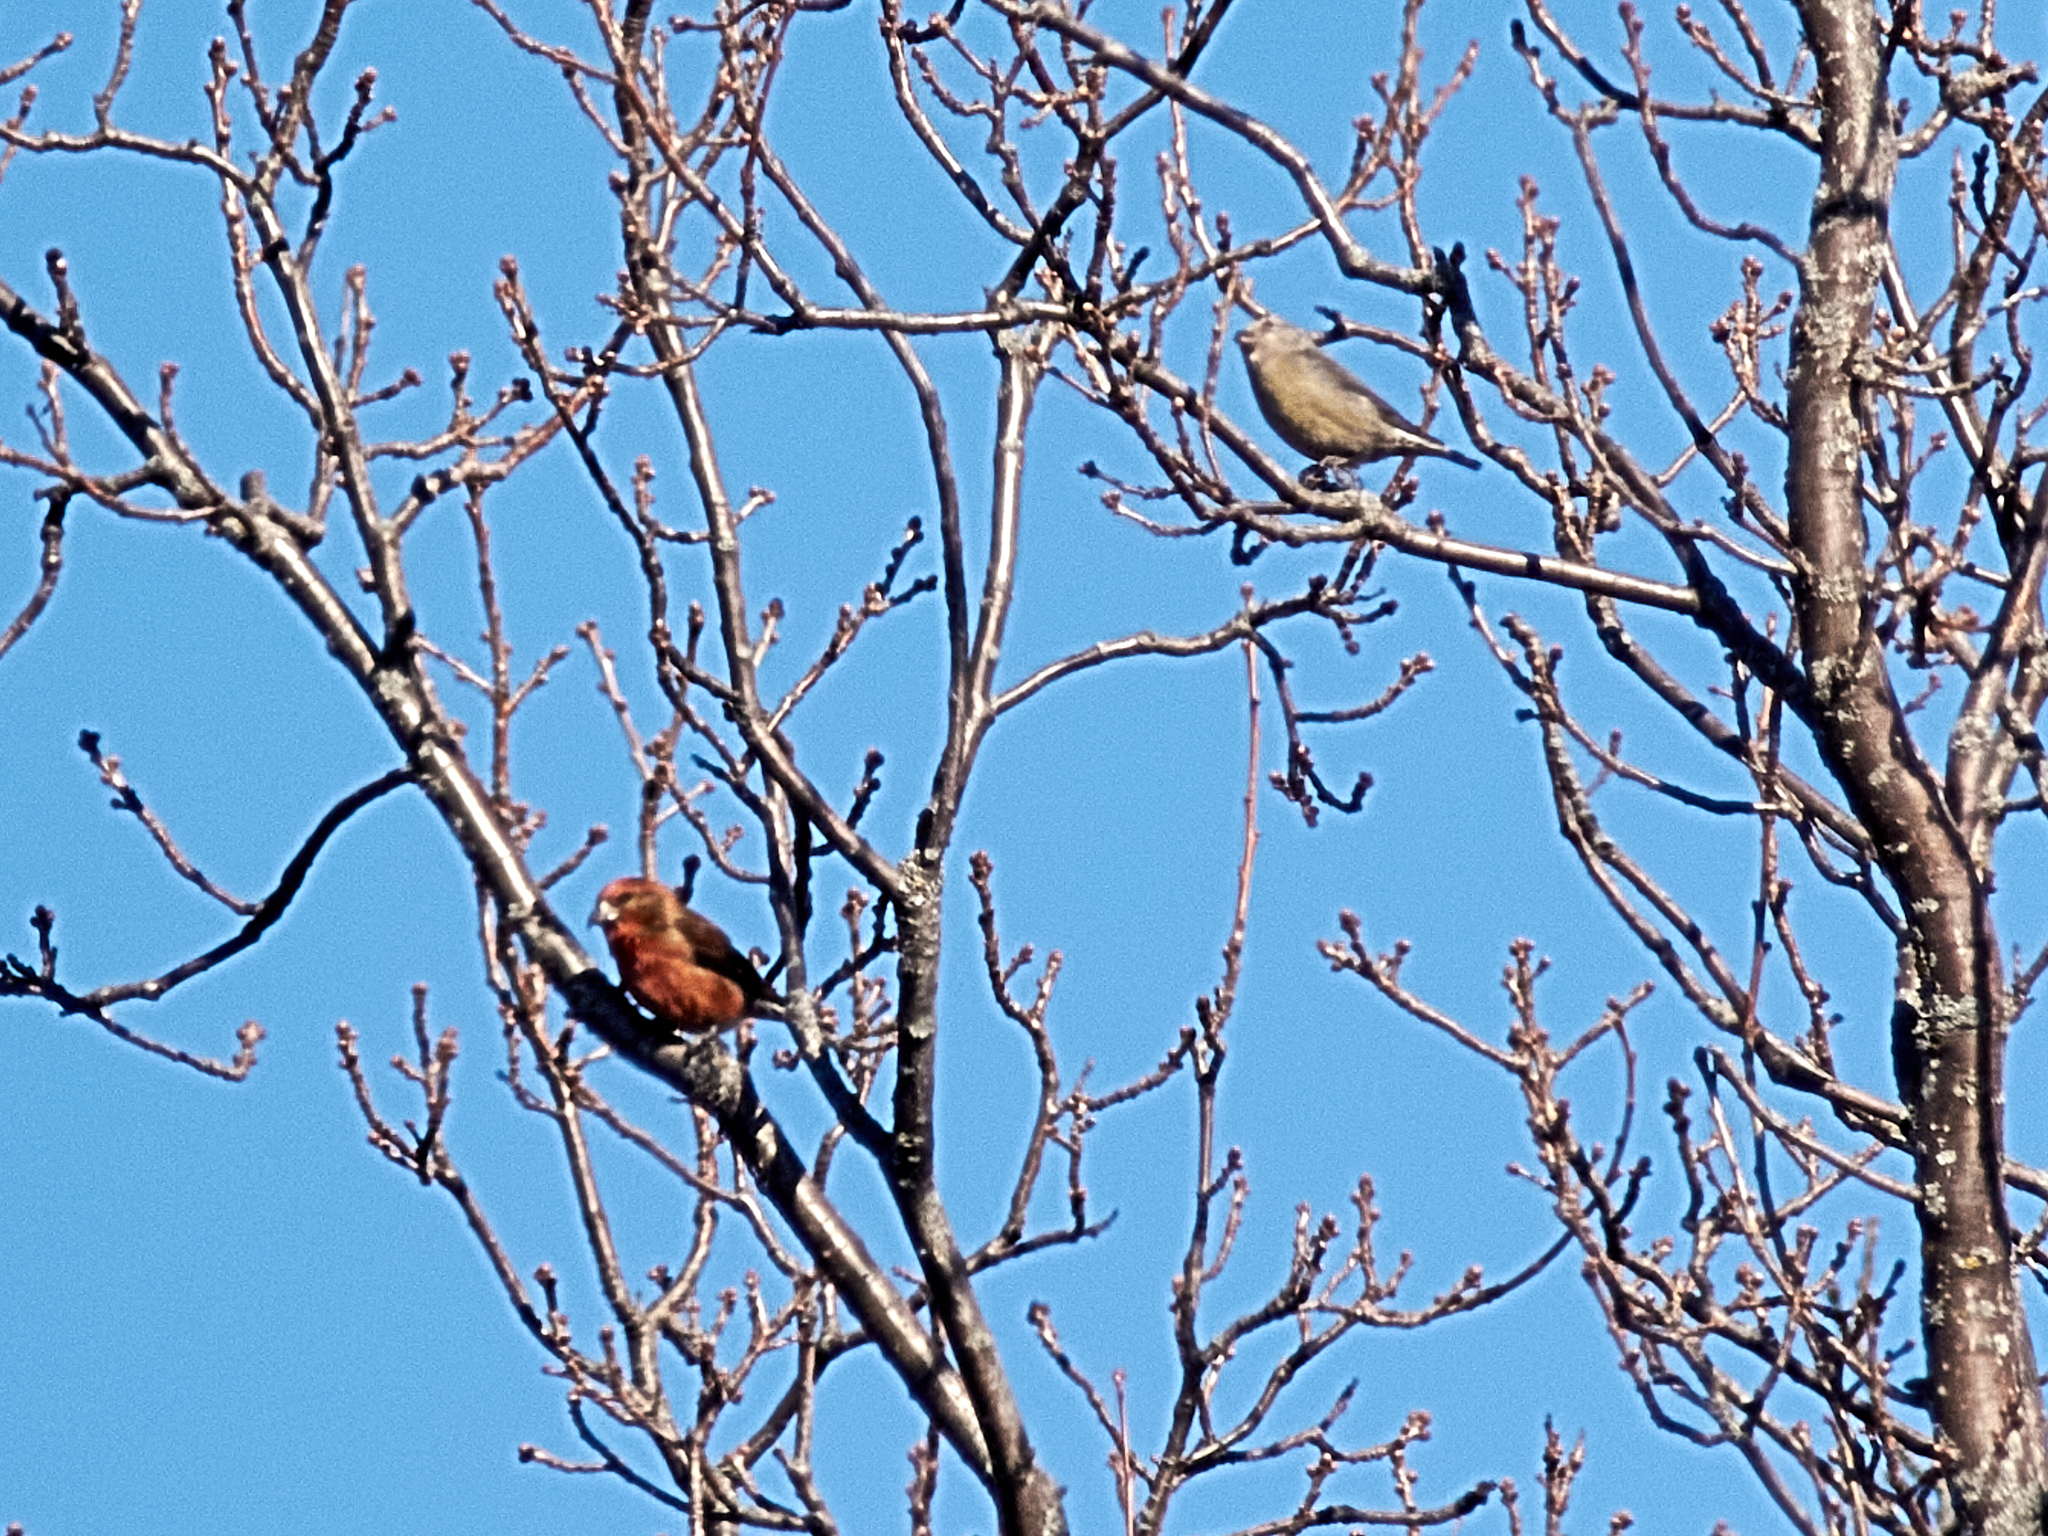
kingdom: Animalia
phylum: Chordata
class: Aves
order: Passeriformes
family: Fringillidae
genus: Loxia
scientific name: Loxia curvirostra
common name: Red crossbill
